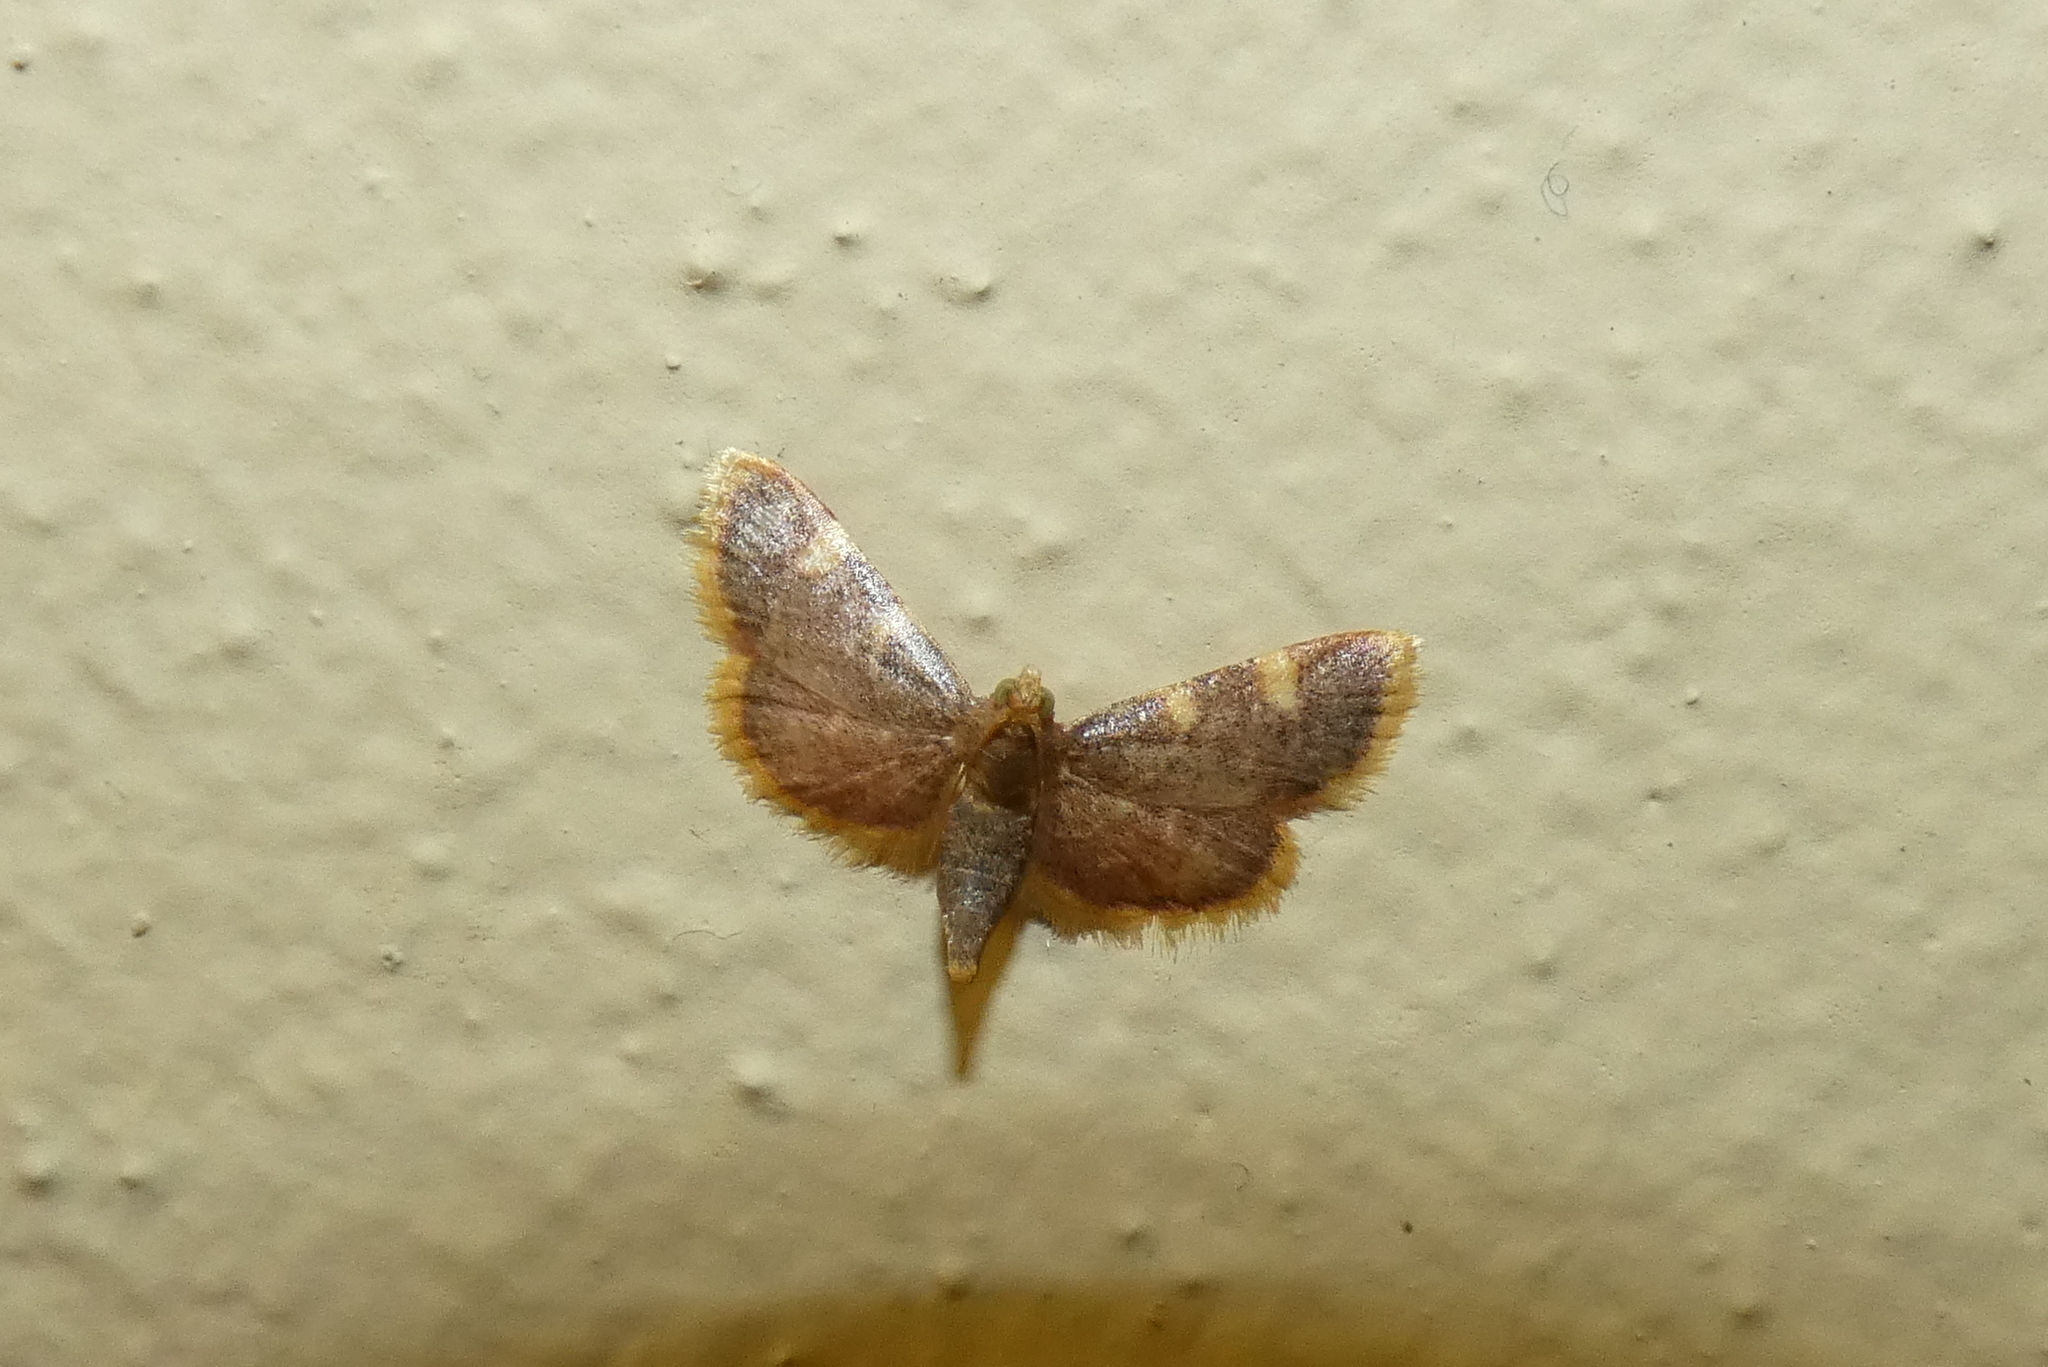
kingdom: Animalia
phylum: Arthropoda
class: Insecta
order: Lepidoptera
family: Pyralidae
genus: Hypsopygia
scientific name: Hypsopygia costalis
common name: Gold triangle
